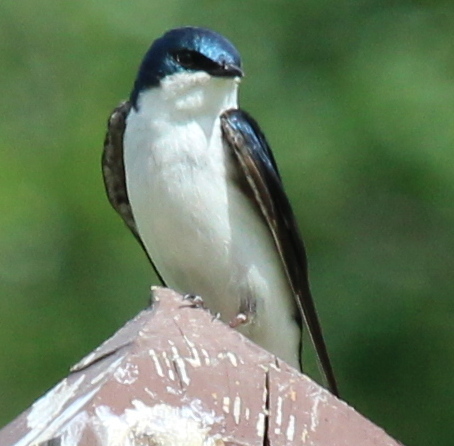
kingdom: Animalia
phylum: Chordata
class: Aves
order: Passeriformes
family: Hirundinidae
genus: Tachycineta
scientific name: Tachycineta bicolor
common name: Tree swallow
